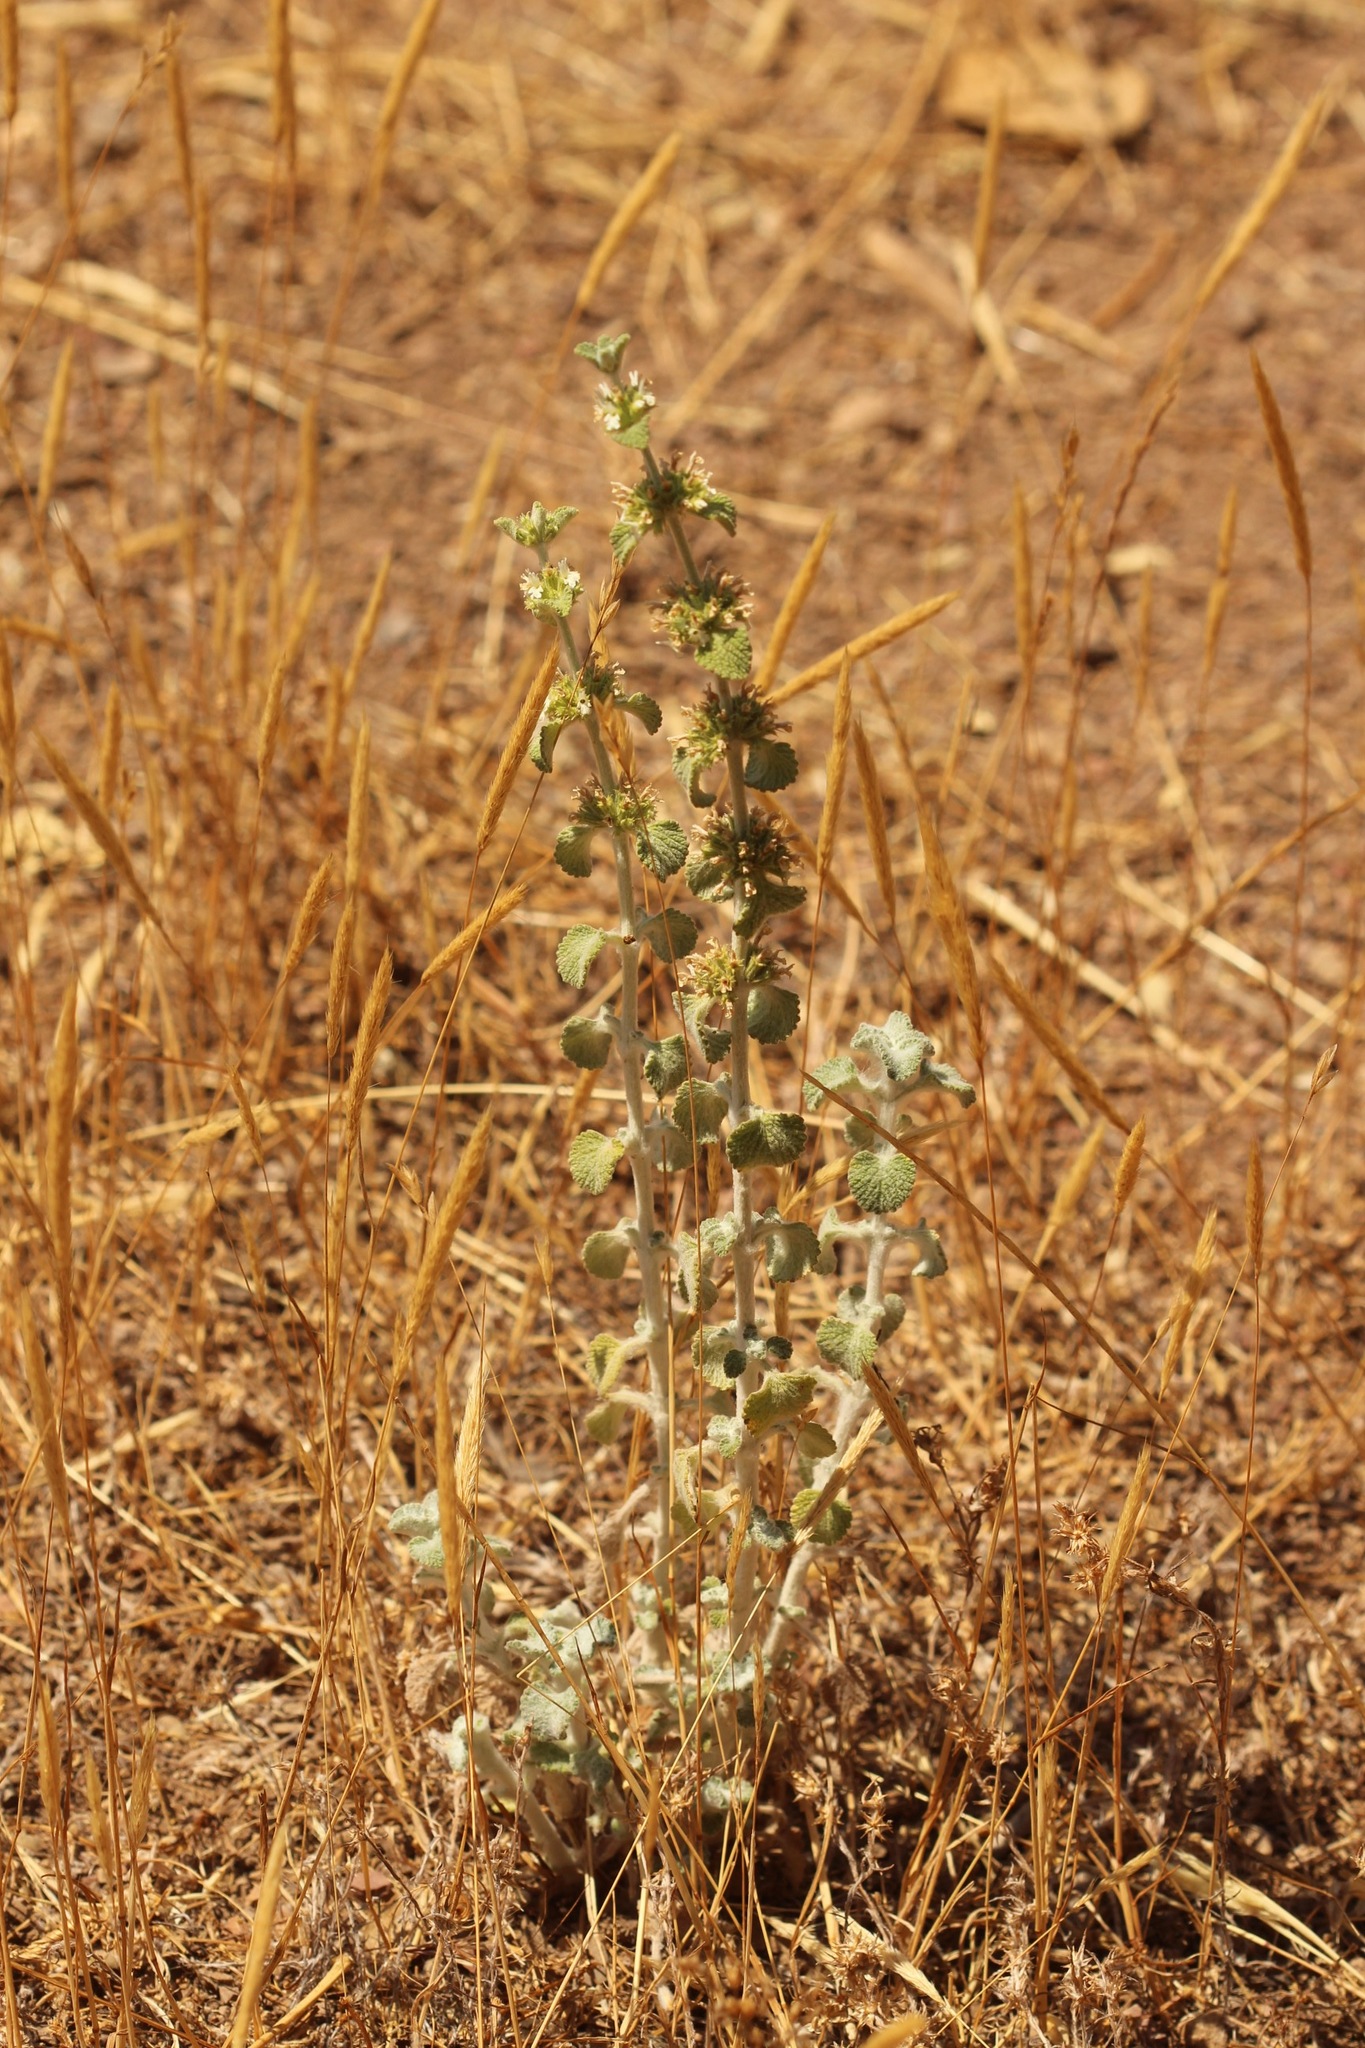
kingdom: Plantae
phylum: Tracheophyta
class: Magnoliopsida
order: Lamiales
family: Lamiaceae
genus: Marrubium
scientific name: Marrubium vulgare
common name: Horehound
